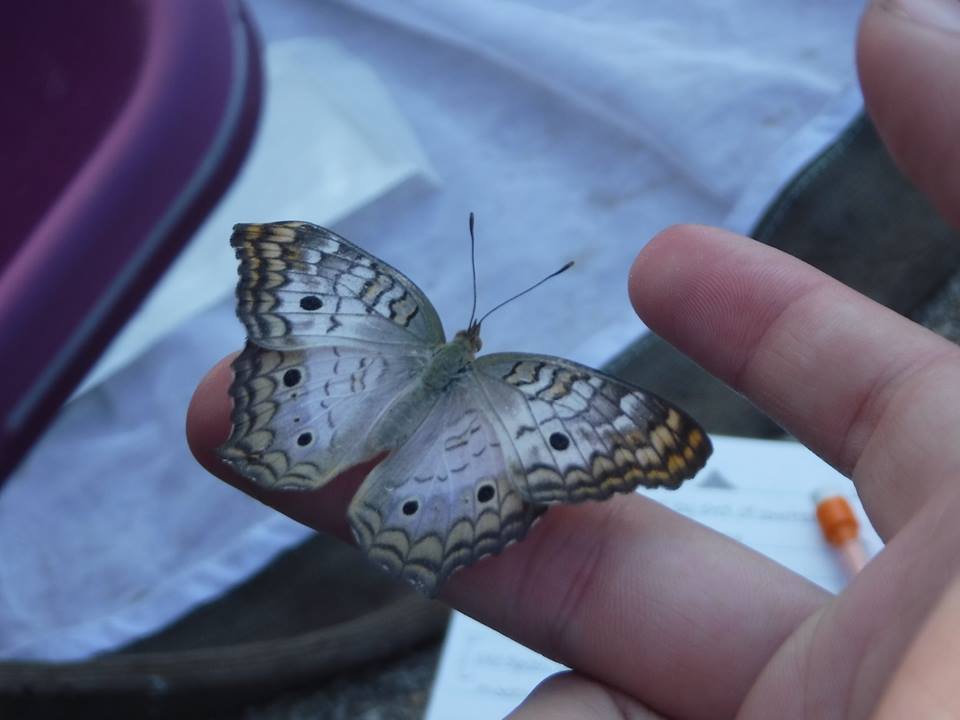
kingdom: Animalia
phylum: Arthropoda
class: Insecta
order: Lepidoptera
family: Nymphalidae
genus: Anartia
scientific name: Anartia jatrophae
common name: White peacock
